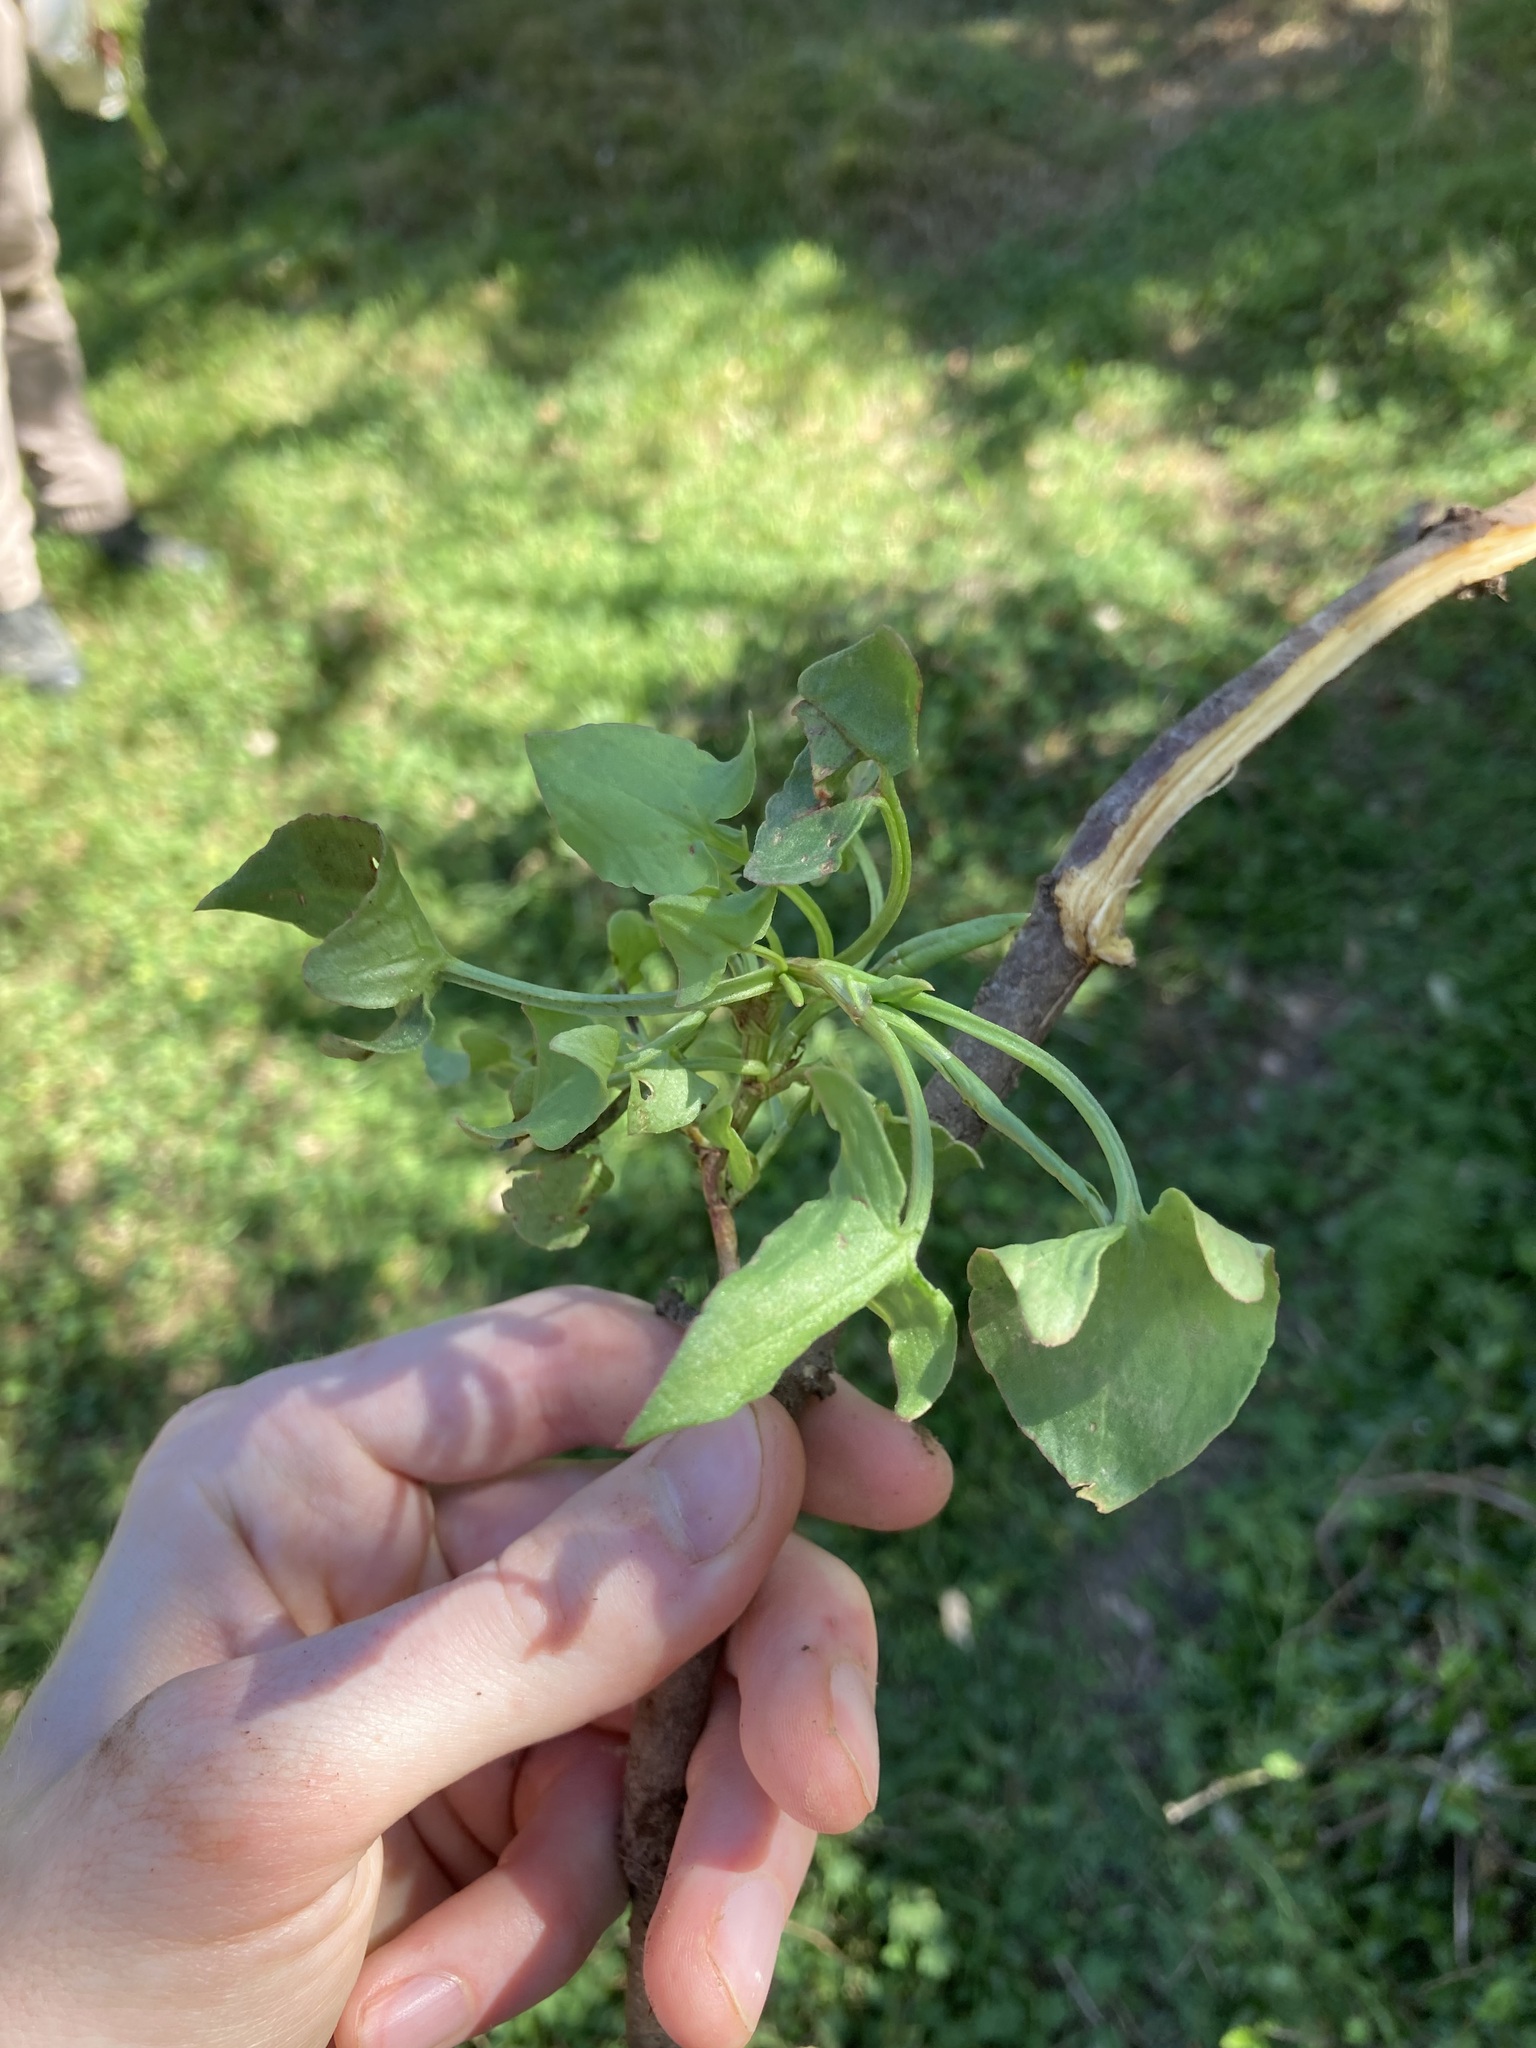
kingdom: Plantae
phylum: Tracheophyta
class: Magnoliopsida
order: Caryophyllales
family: Polygonaceae
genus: Rumex
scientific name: Rumex sagittatus
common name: Climbing dock
